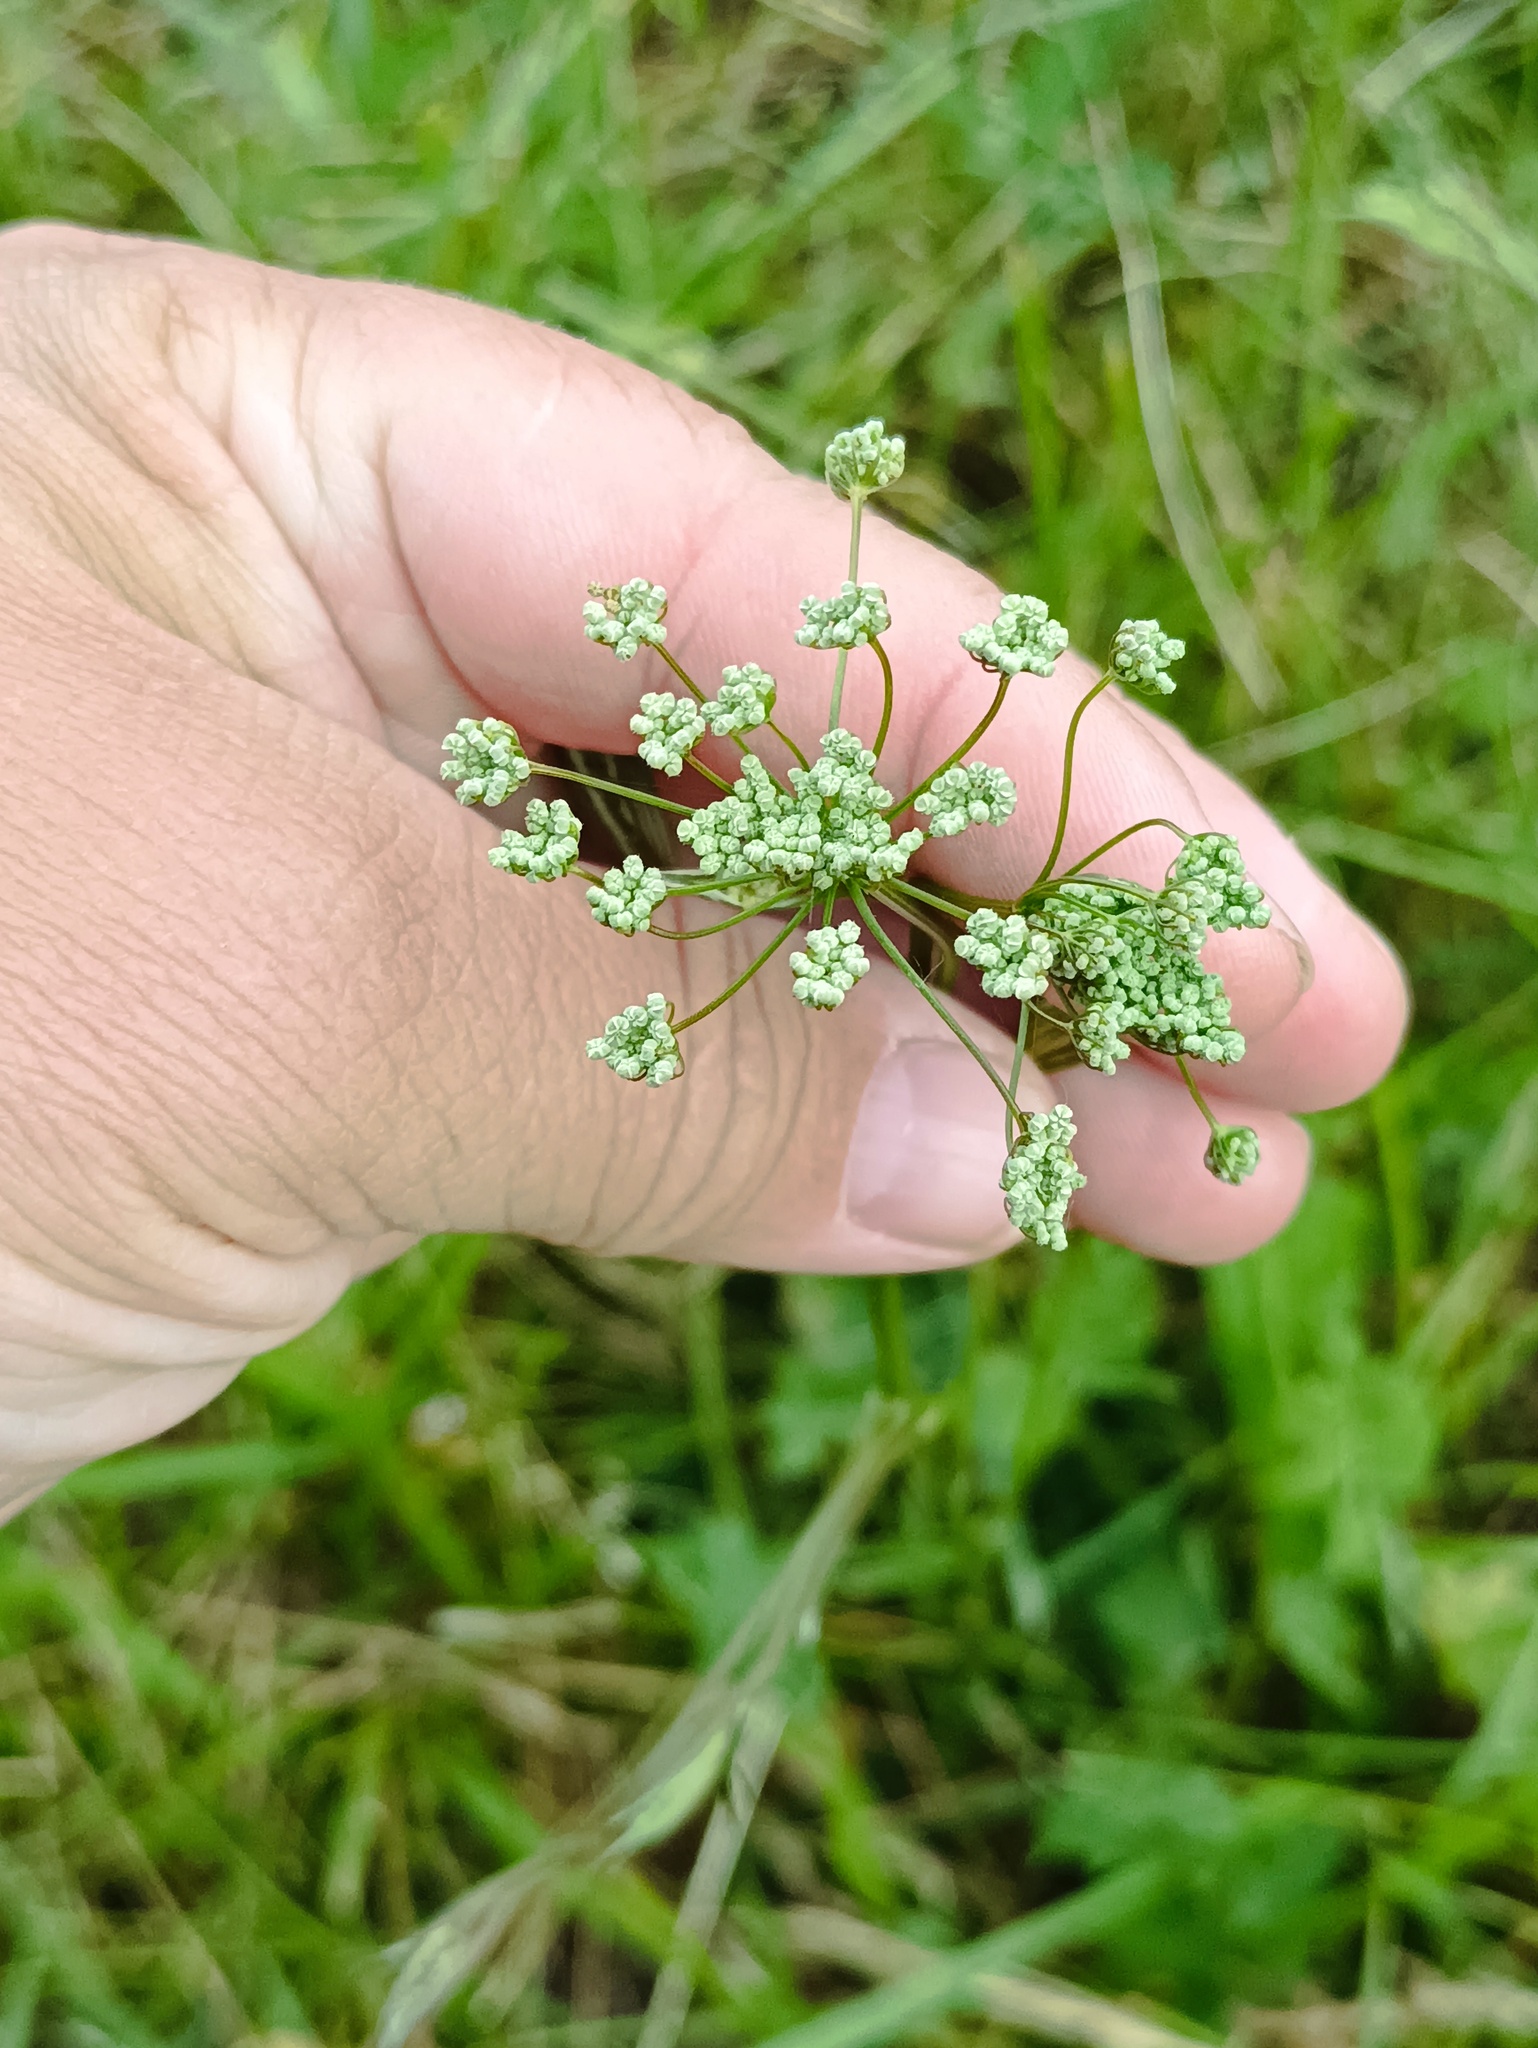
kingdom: Plantae
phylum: Tracheophyta
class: Magnoliopsida
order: Apiales
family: Apiaceae
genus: Pimpinella
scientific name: Pimpinella saxifraga
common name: Burnet-saxifrage
